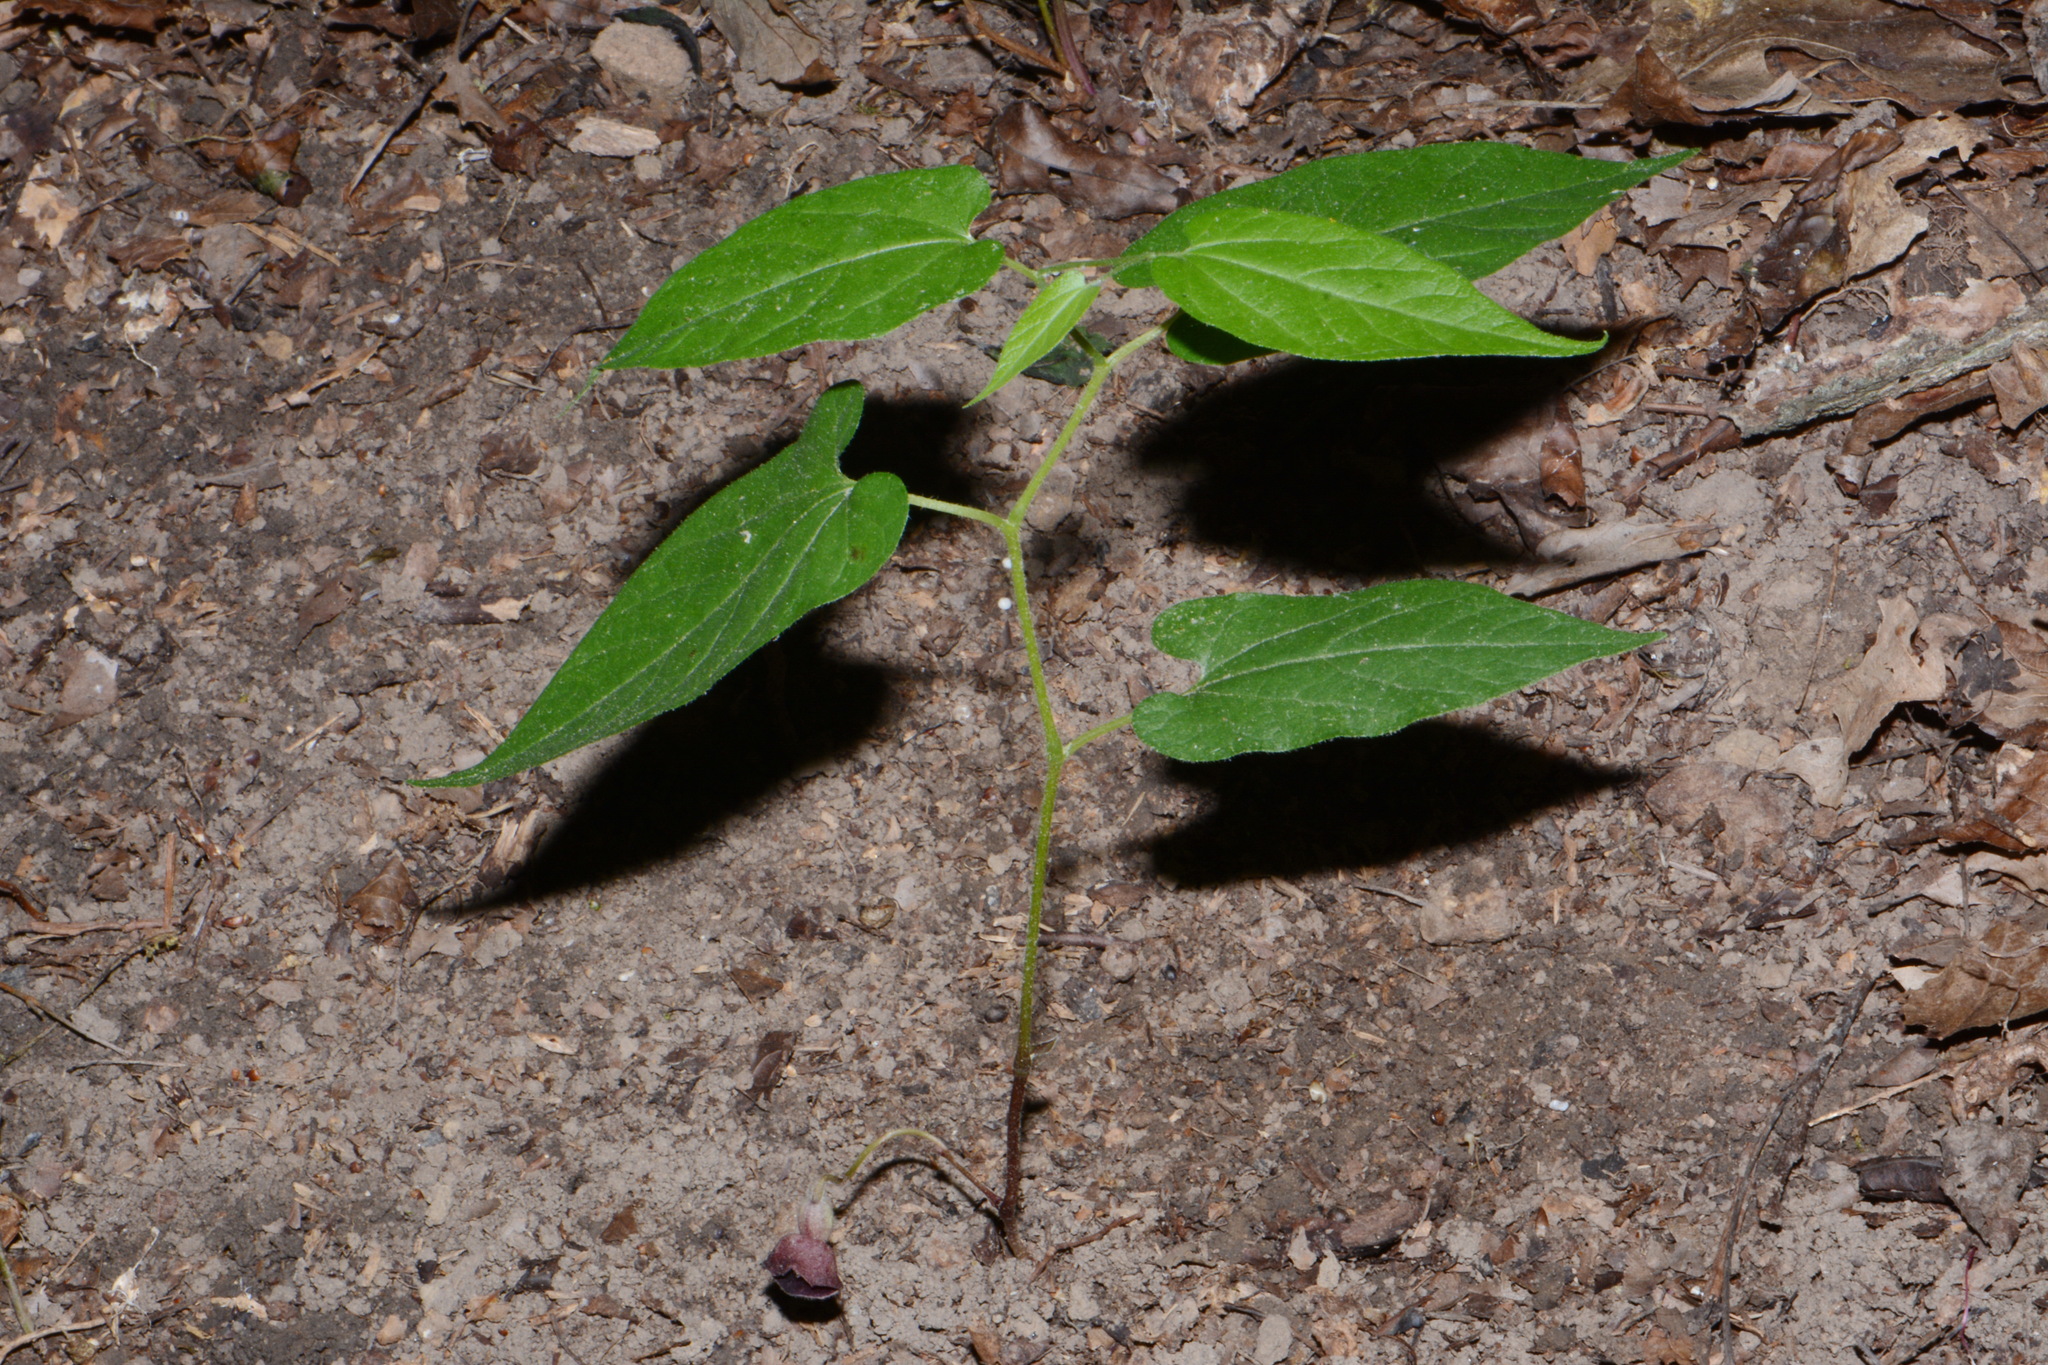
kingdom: Plantae
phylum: Tracheophyta
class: Magnoliopsida
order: Piperales
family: Aristolochiaceae
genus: Endodeca
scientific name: Endodeca serpentaria
